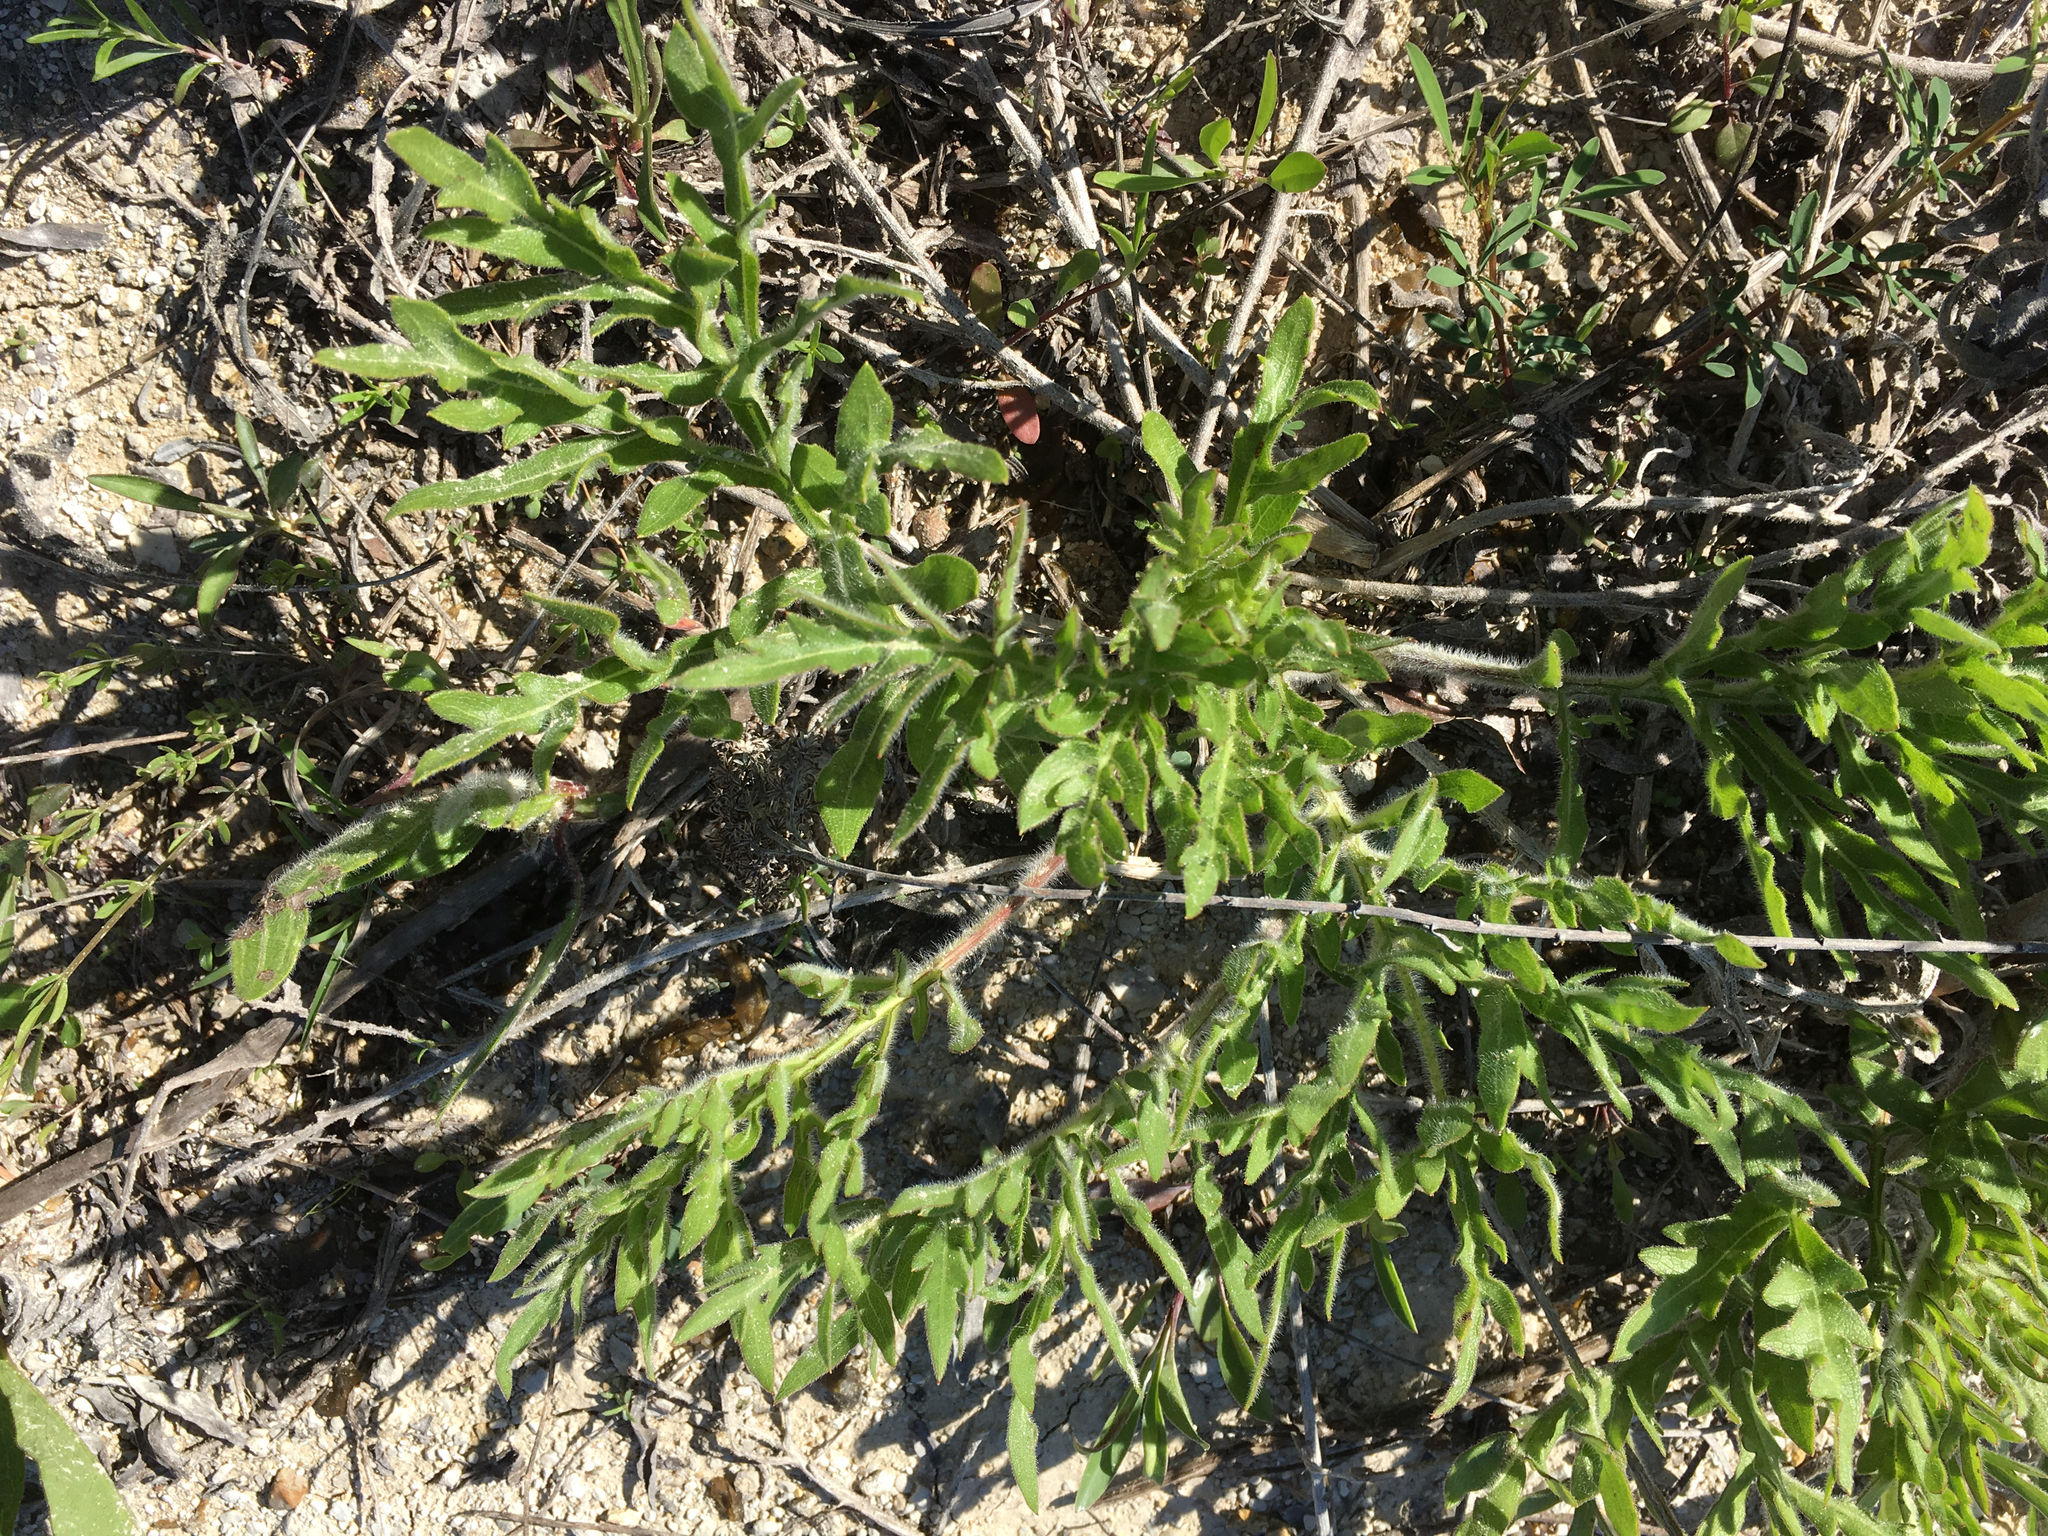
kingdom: Plantae
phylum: Tracheophyta
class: Magnoliopsida
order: Asterales
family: Asteraceae
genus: Silphium
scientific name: Silphium laciniatum
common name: Polarplant
